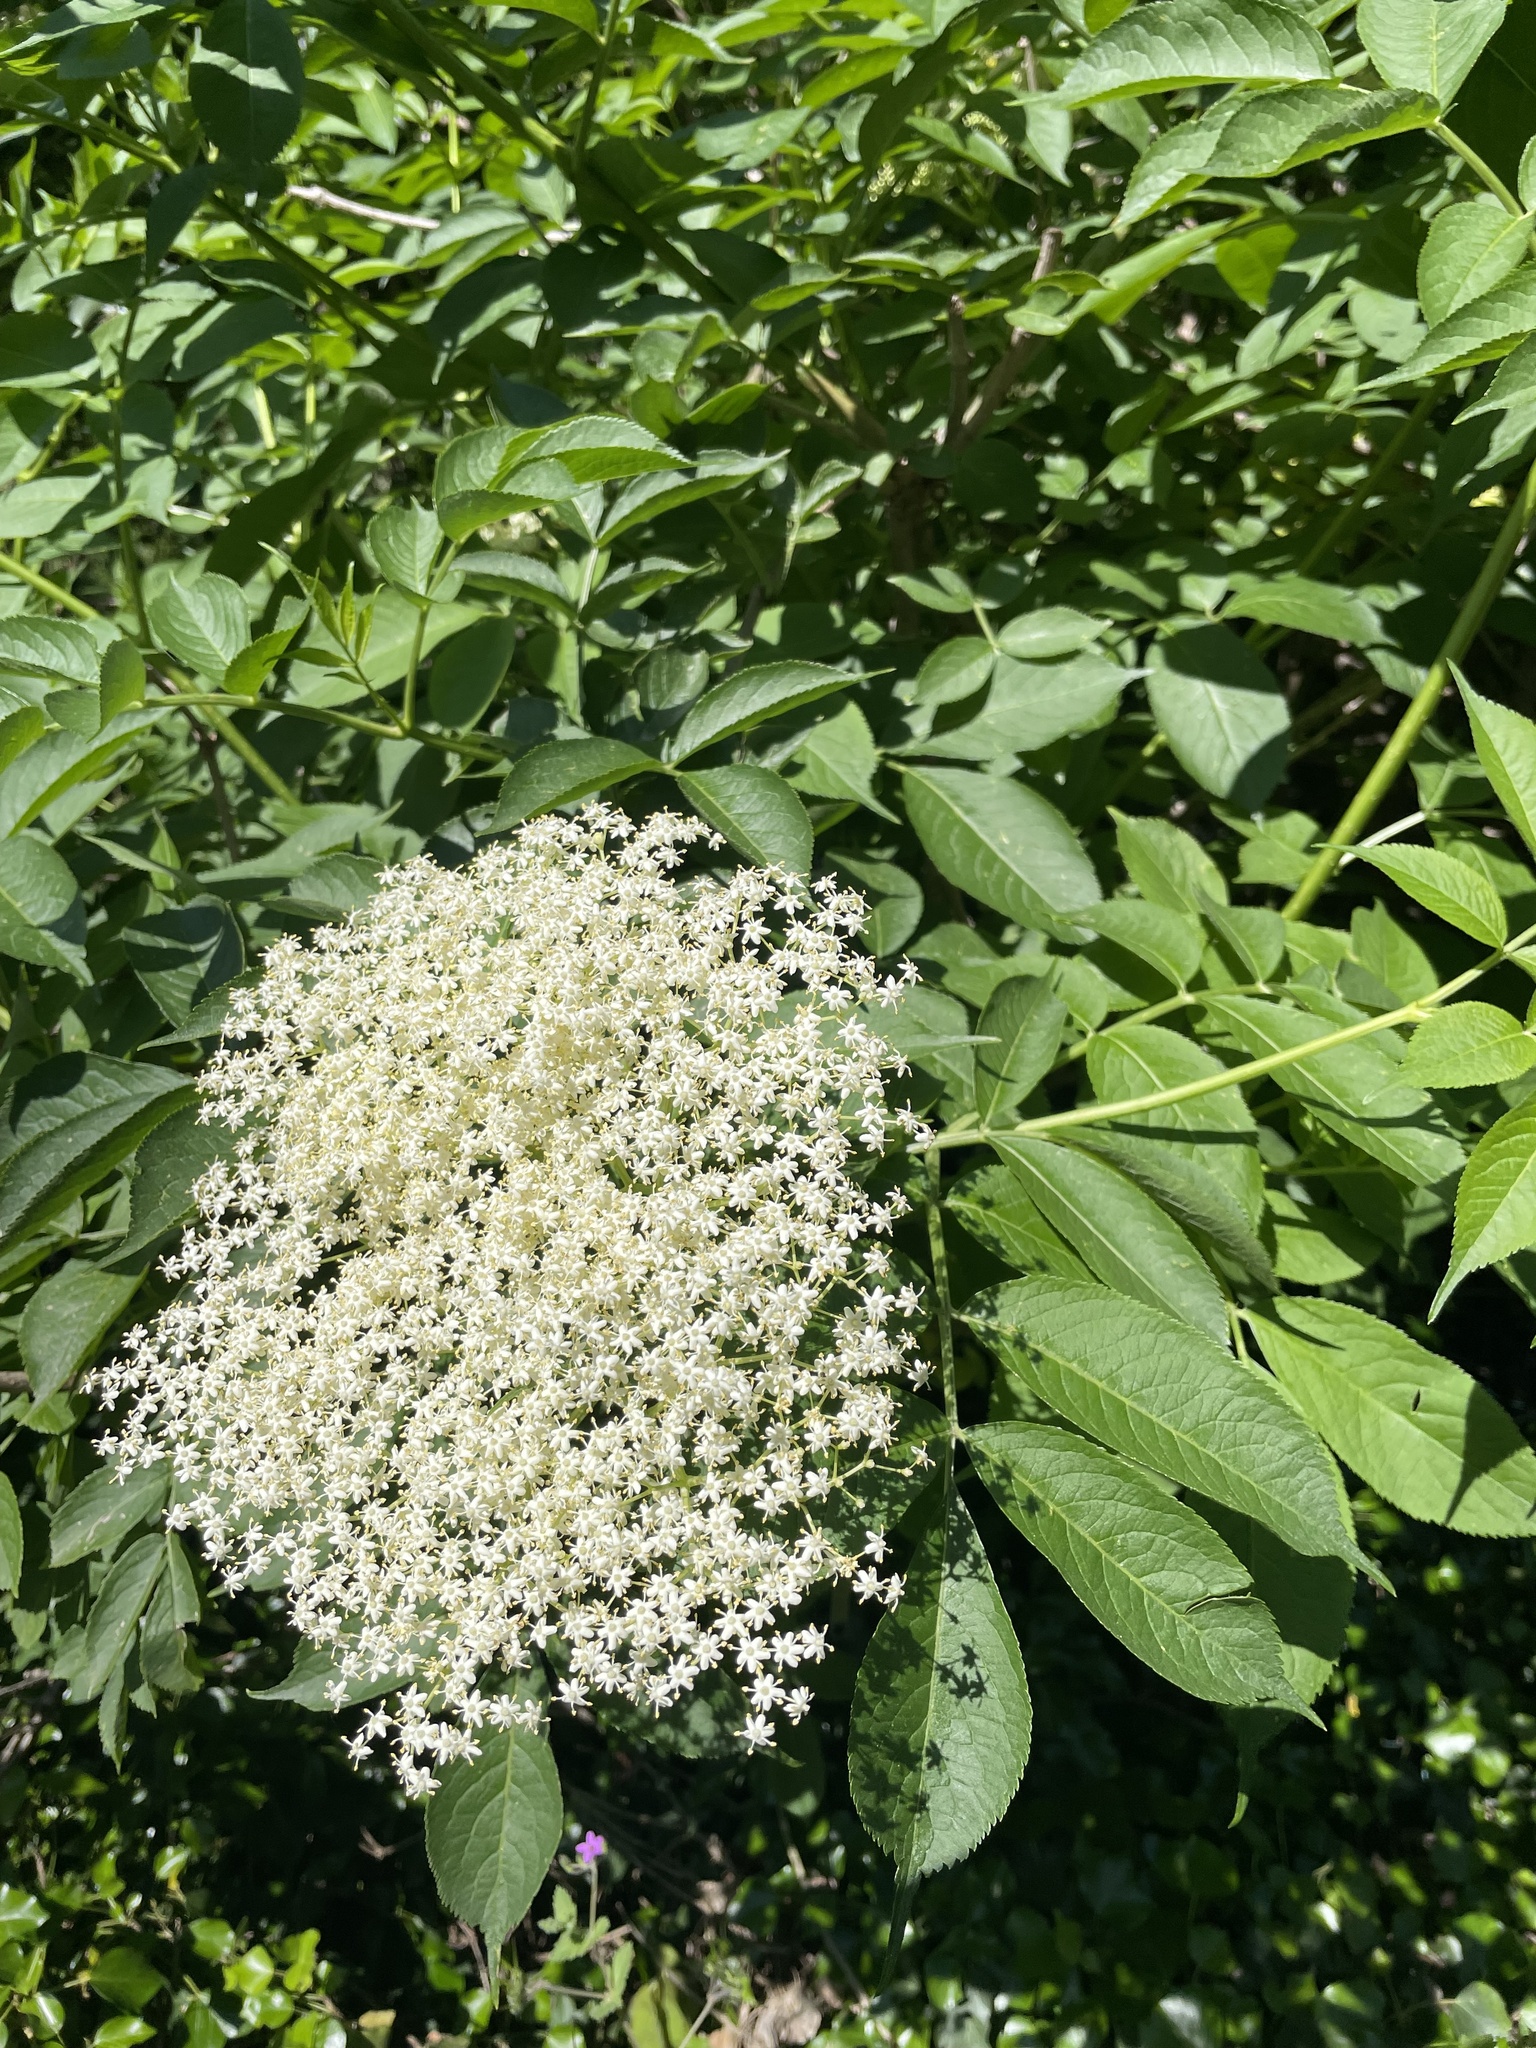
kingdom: Plantae
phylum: Tracheophyta
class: Magnoliopsida
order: Dipsacales
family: Viburnaceae
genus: Sambucus
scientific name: Sambucus nigra
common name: Elder
